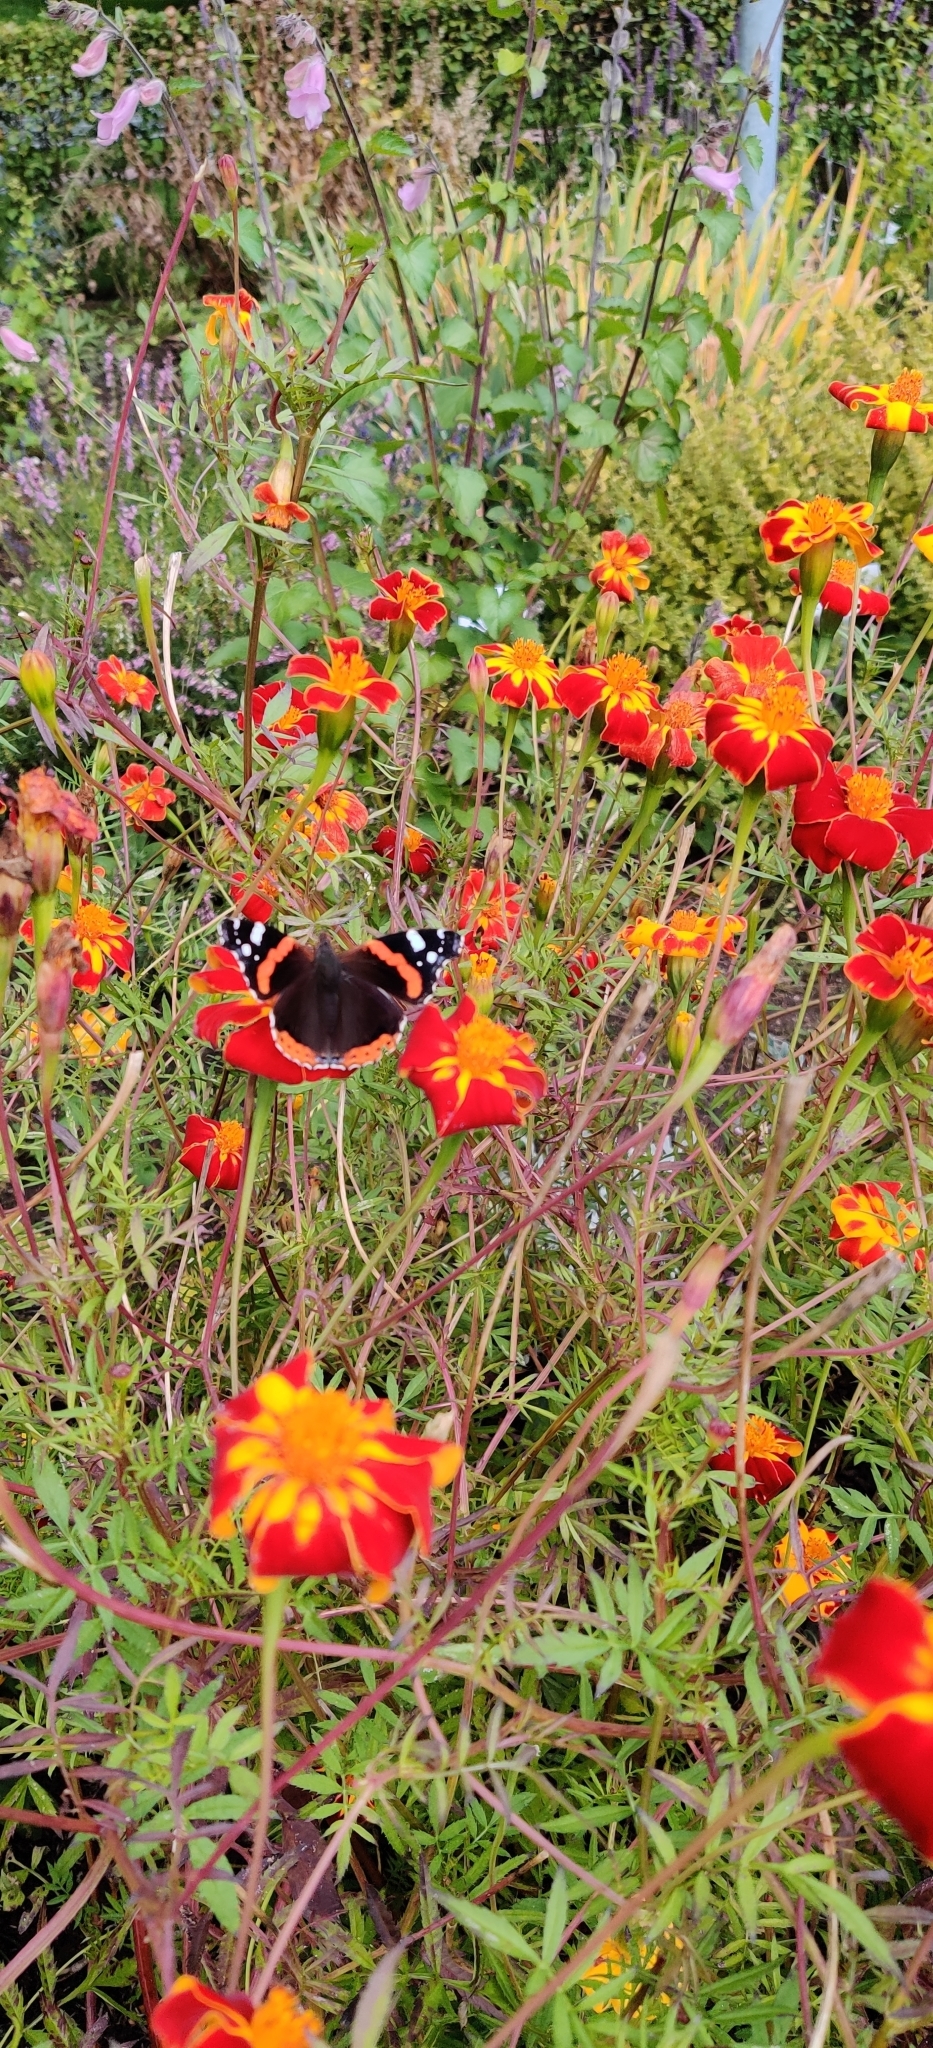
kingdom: Animalia
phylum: Arthropoda
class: Insecta
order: Lepidoptera
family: Nymphalidae
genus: Vanessa
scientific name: Vanessa atalanta
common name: Red admiral
